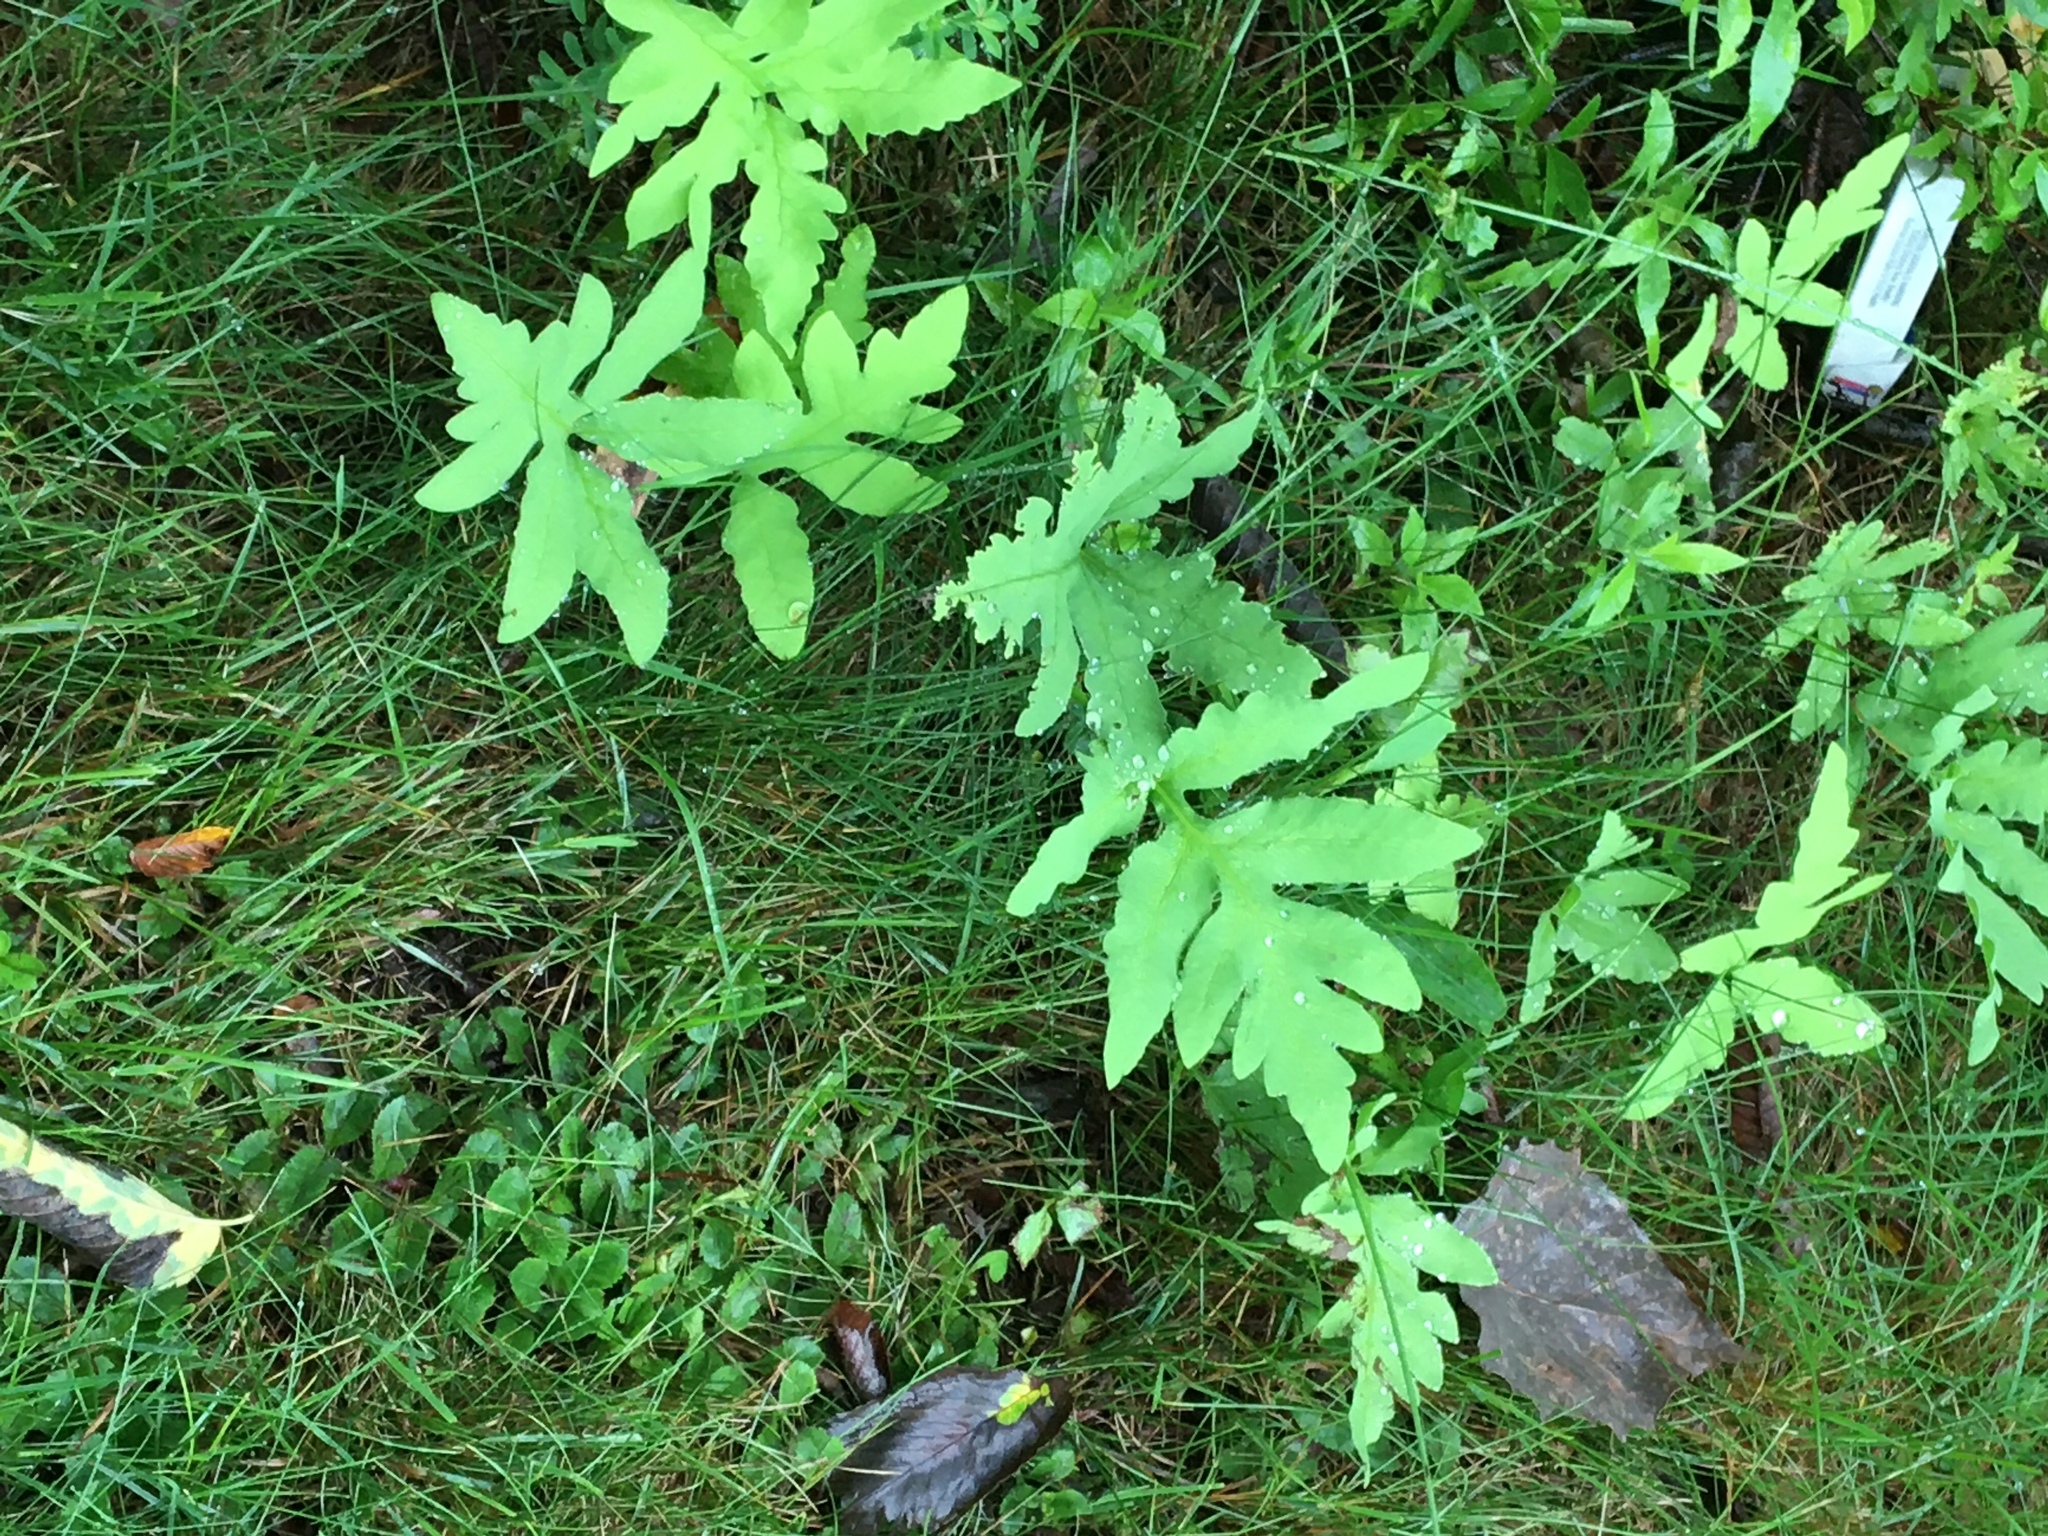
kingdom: Plantae
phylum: Tracheophyta
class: Polypodiopsida
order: Polypodiales
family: Onocleaceae
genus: Onoclea
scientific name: Onoclea sensibilis
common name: Sensitive fern
